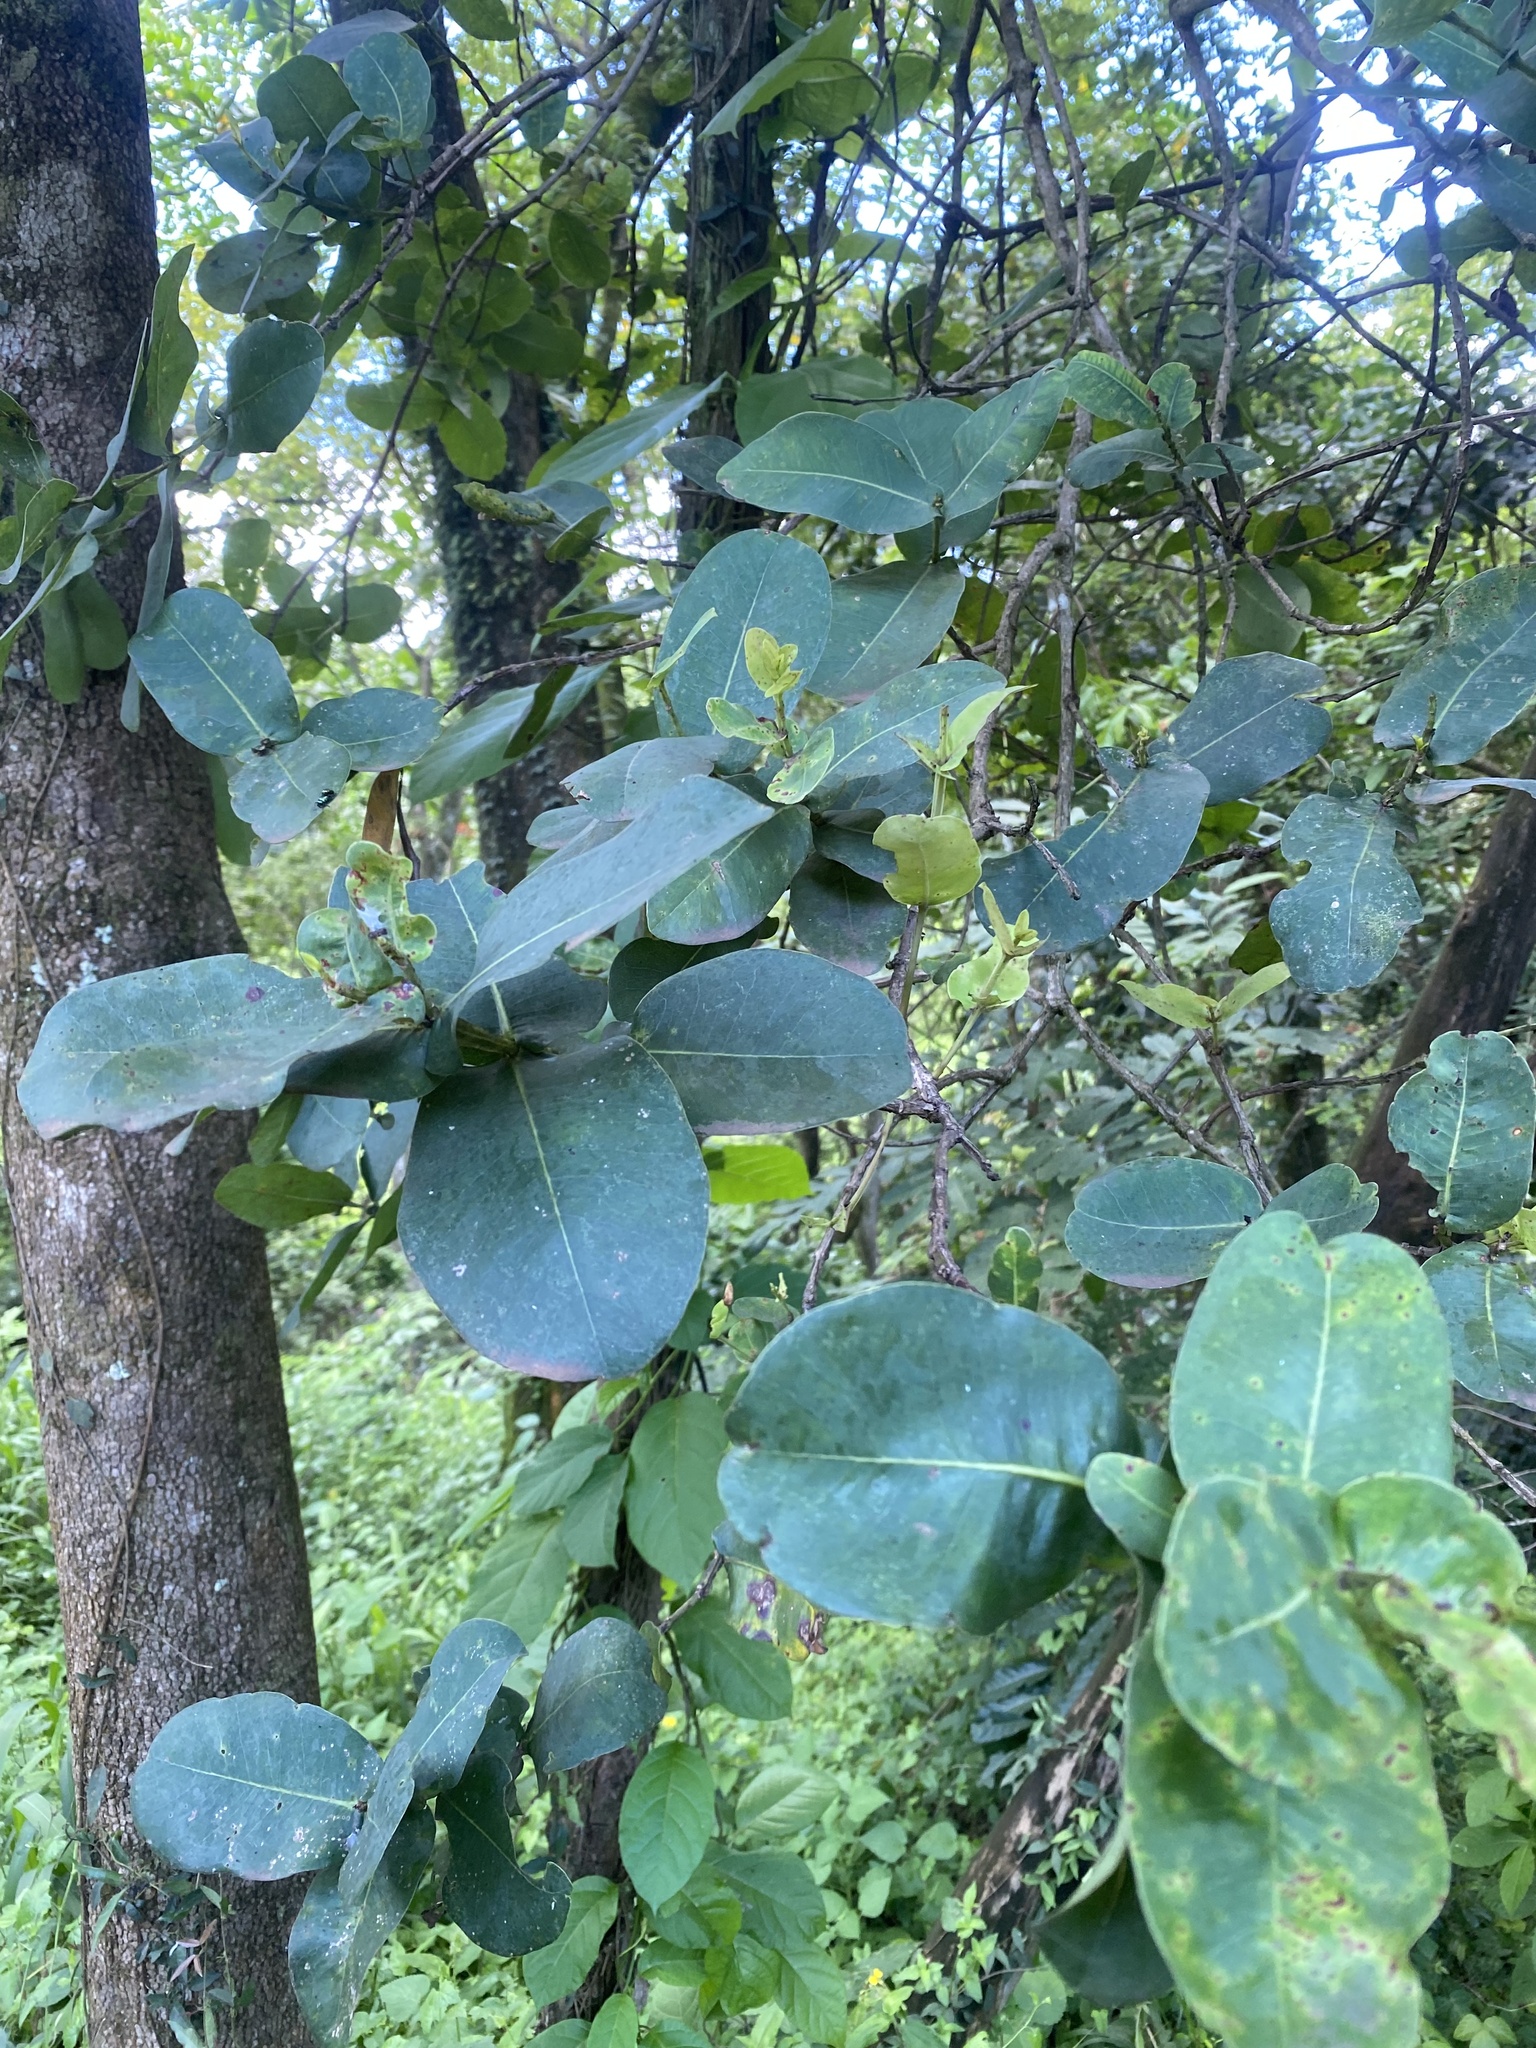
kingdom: Plantae
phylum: Tracheophyta
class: Magnoliopsida
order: Myrtales
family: Myrtaceae
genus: Syzygium
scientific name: Syzygium cordatum
